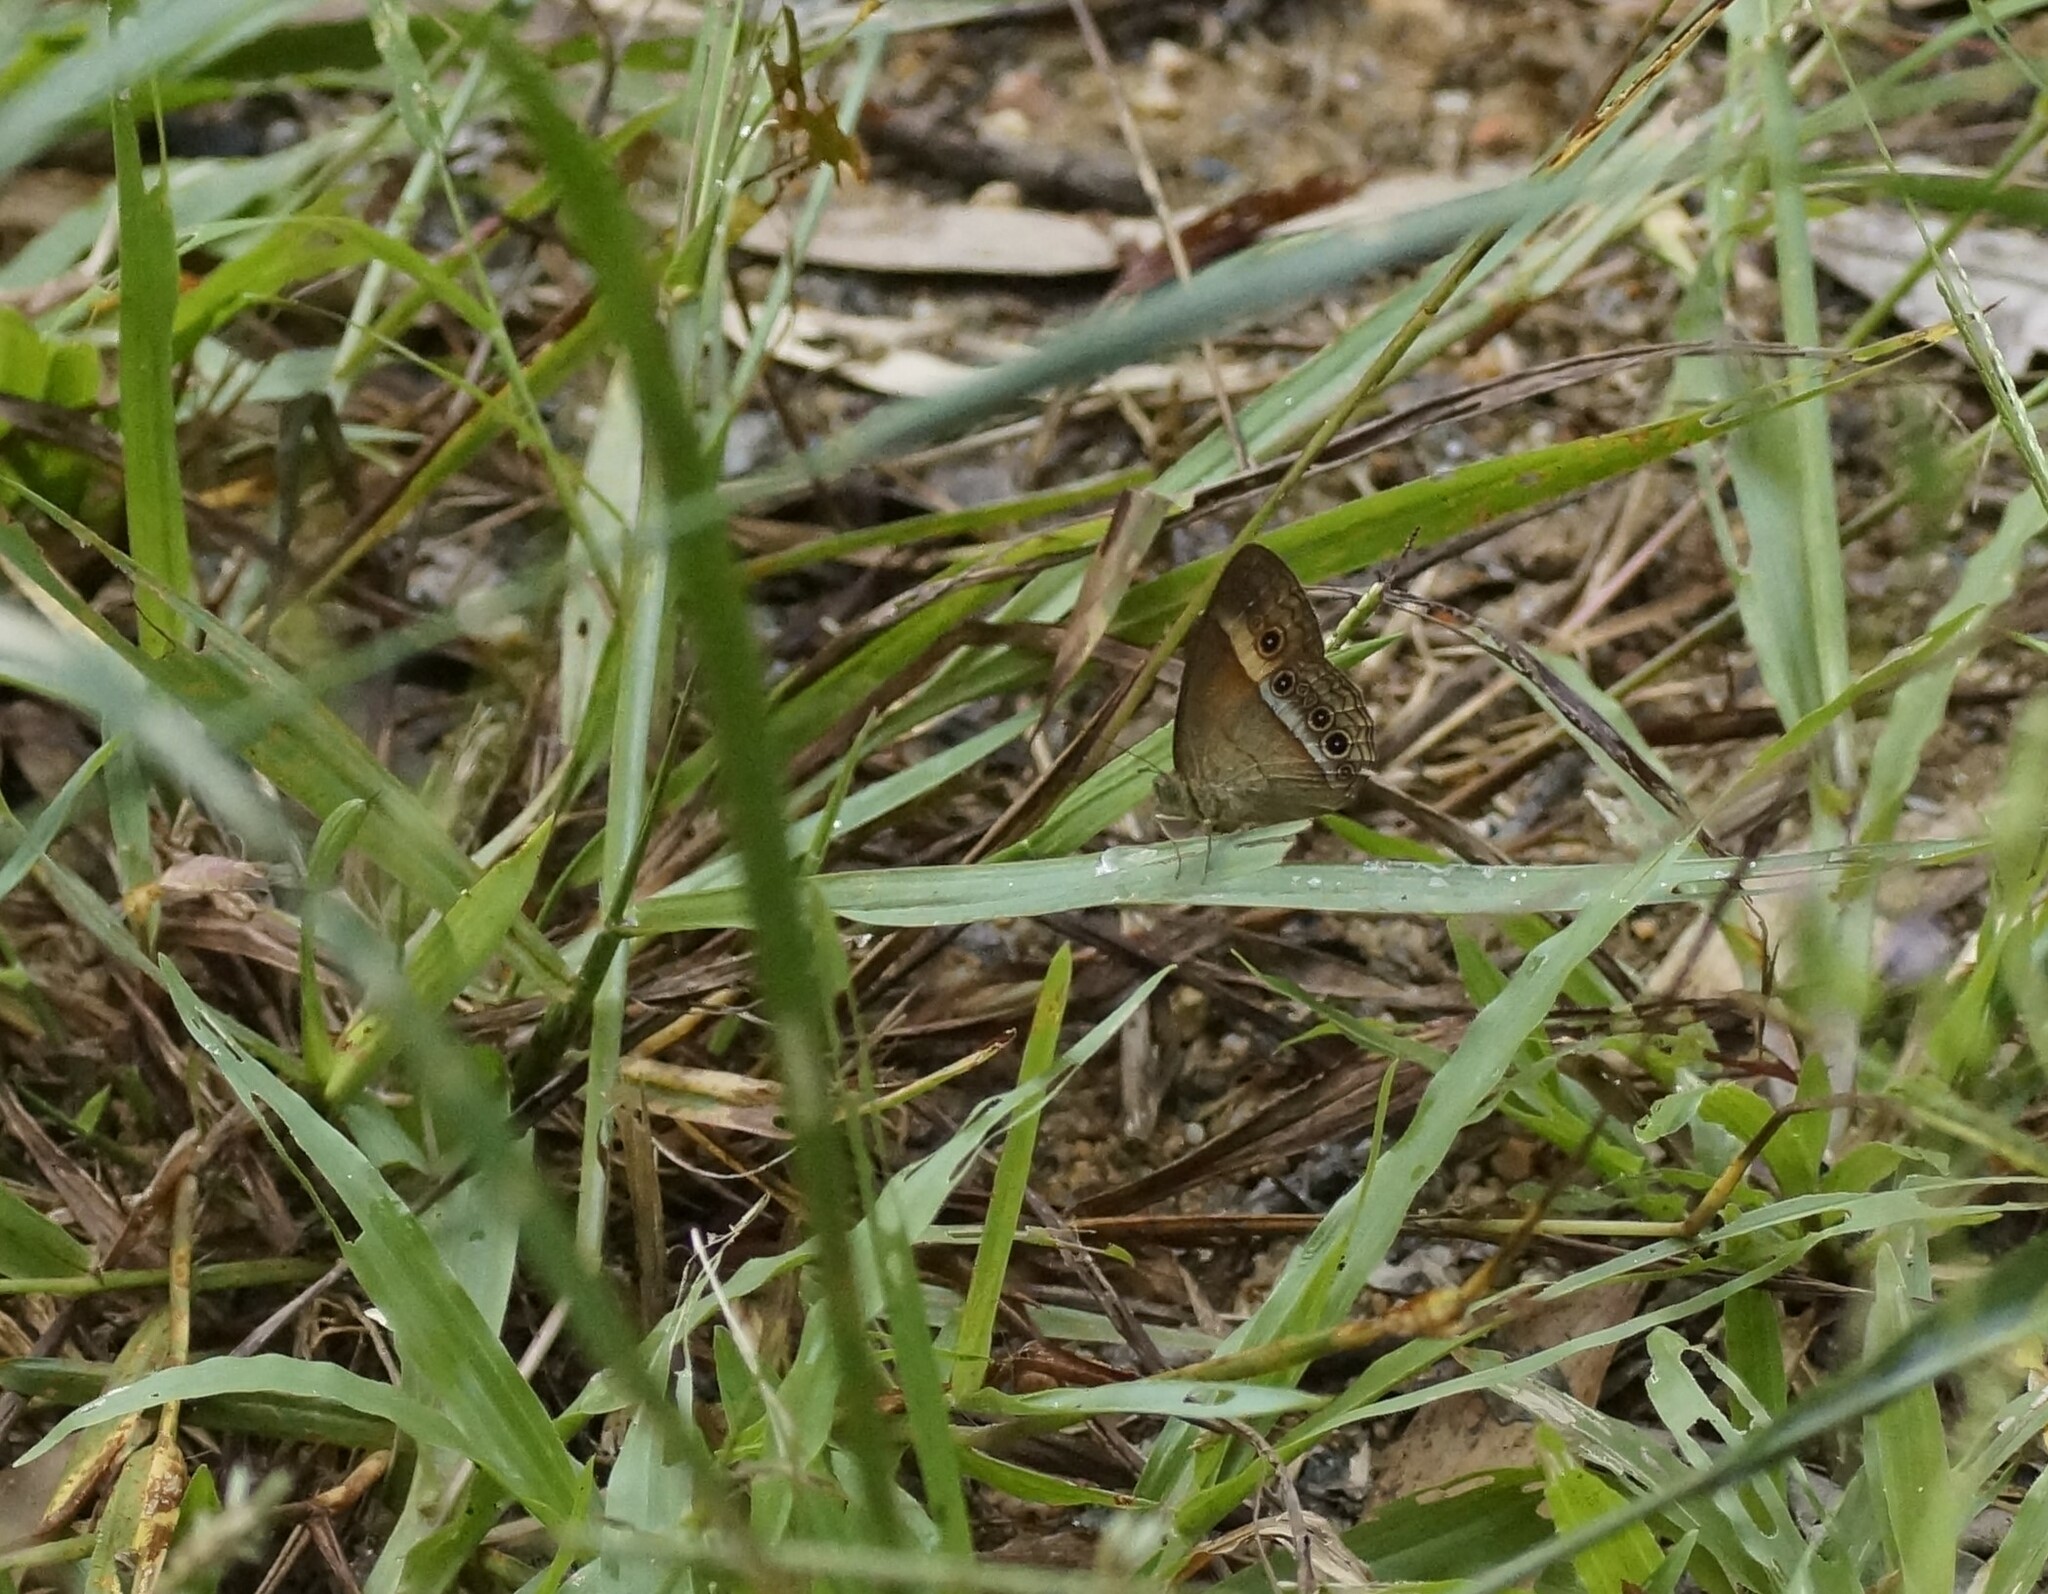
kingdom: Animalia
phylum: Arthropoda
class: Insecta
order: Lepidoptera
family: Nymphalidae
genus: Mycalesis
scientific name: Mycalesis terminus
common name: Orange bushbrown
